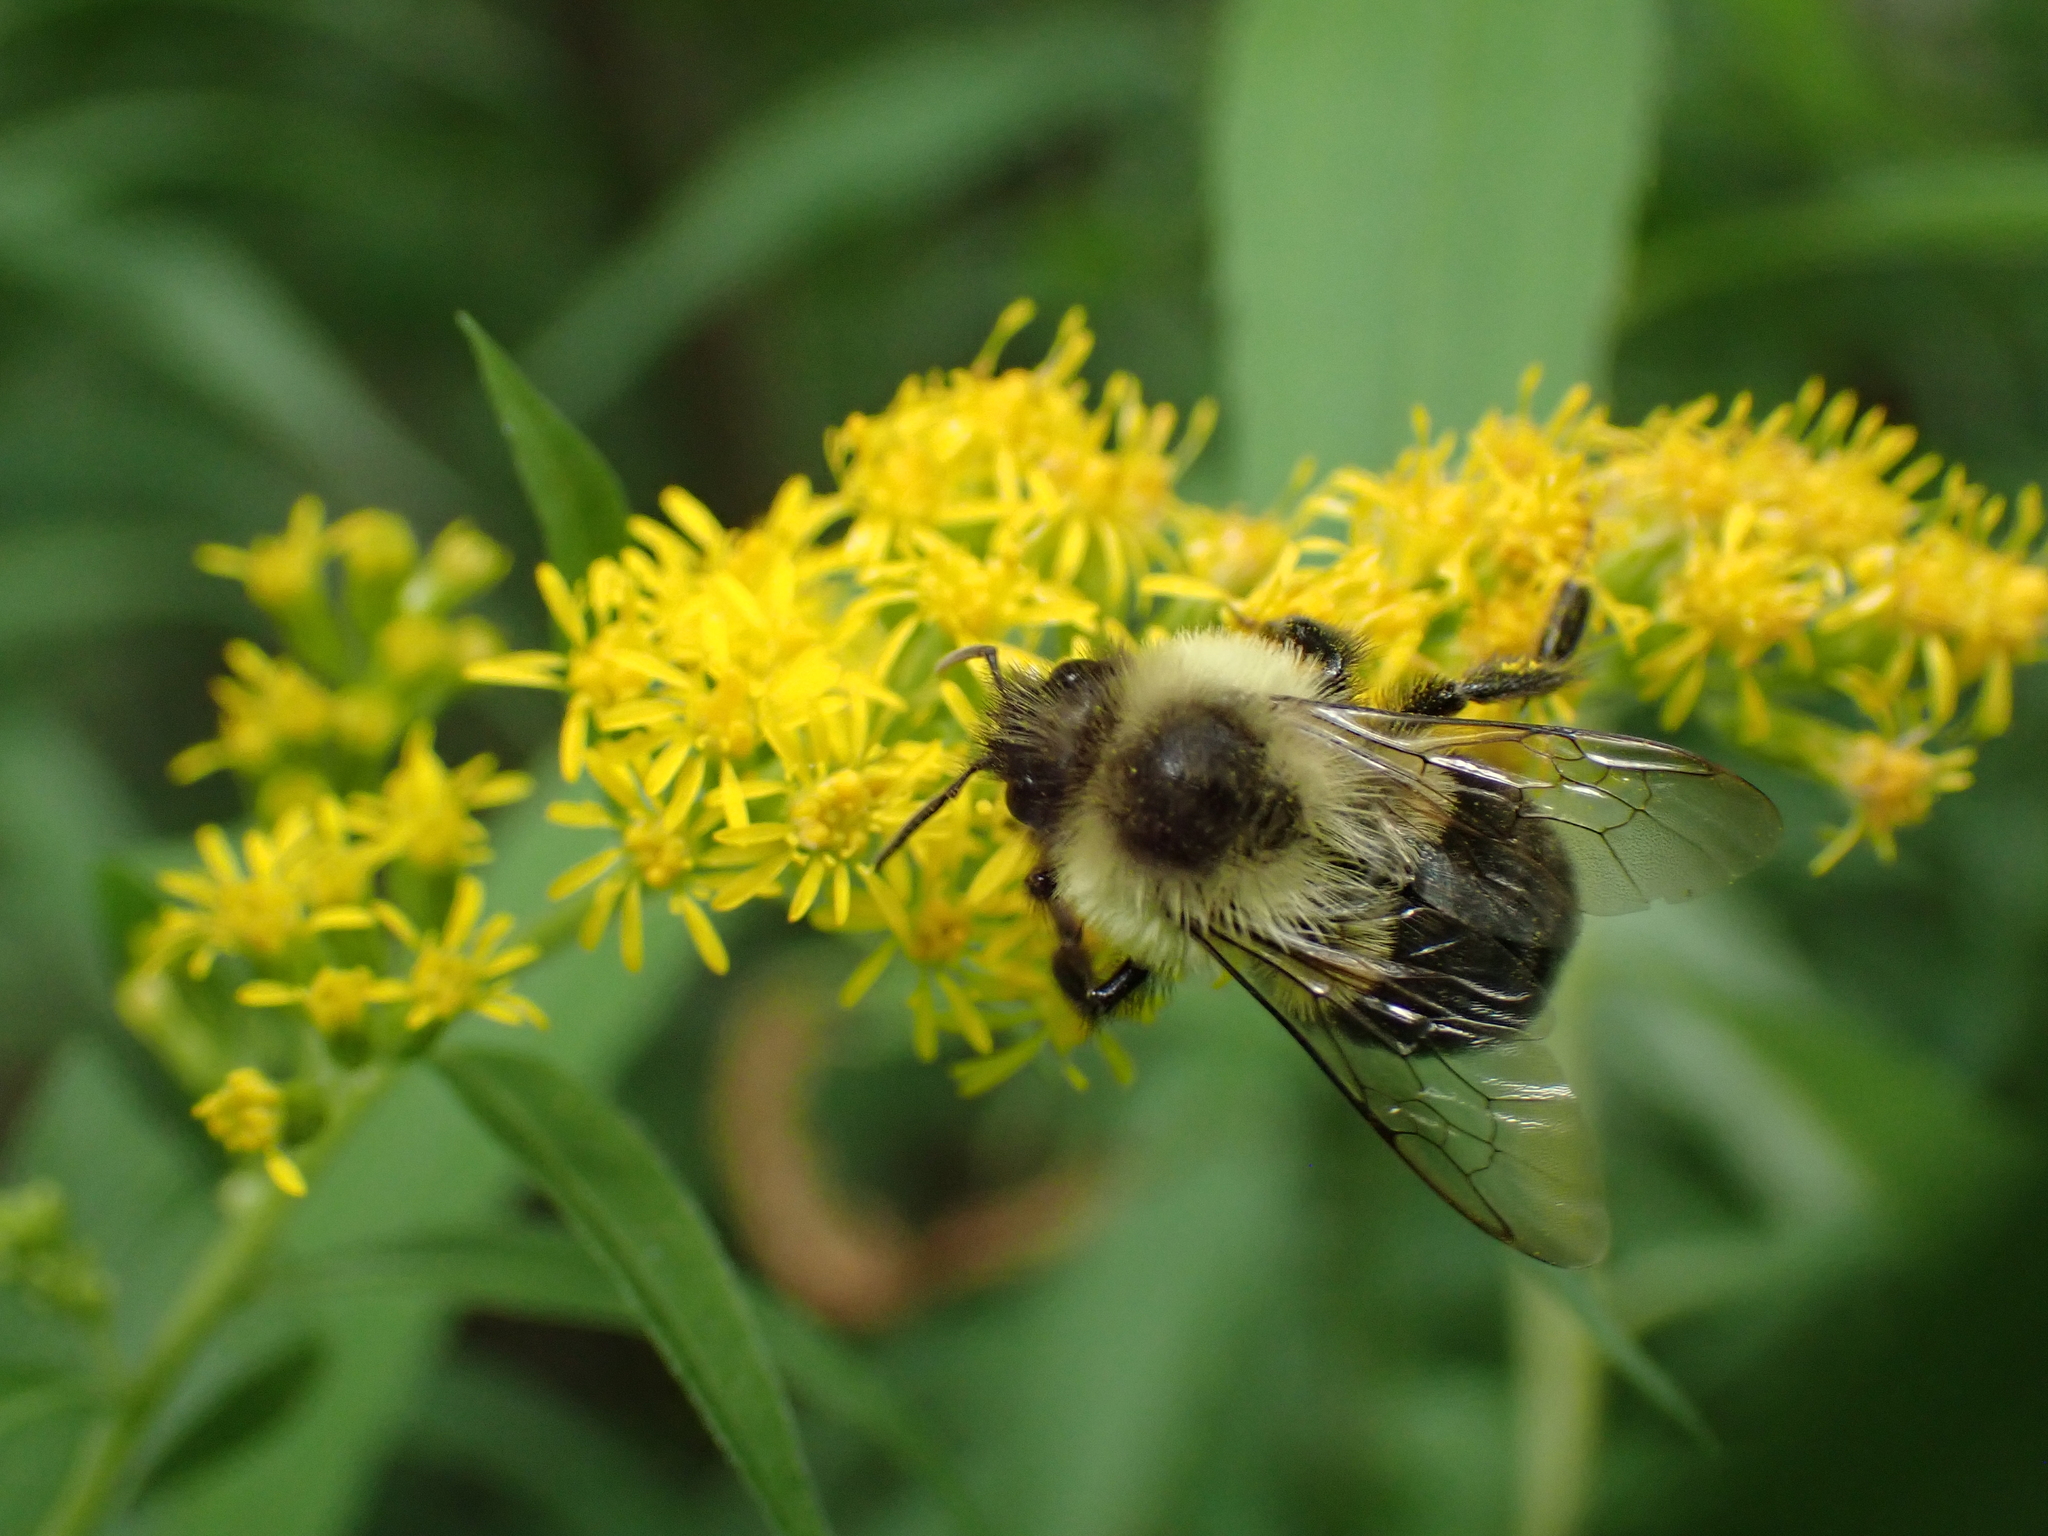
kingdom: Animalia
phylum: Arthropoda
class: Insecta
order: Hymenoptera
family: Apidae
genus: Bombus
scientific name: Bombus impatiens
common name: Common eastern bumble bee
